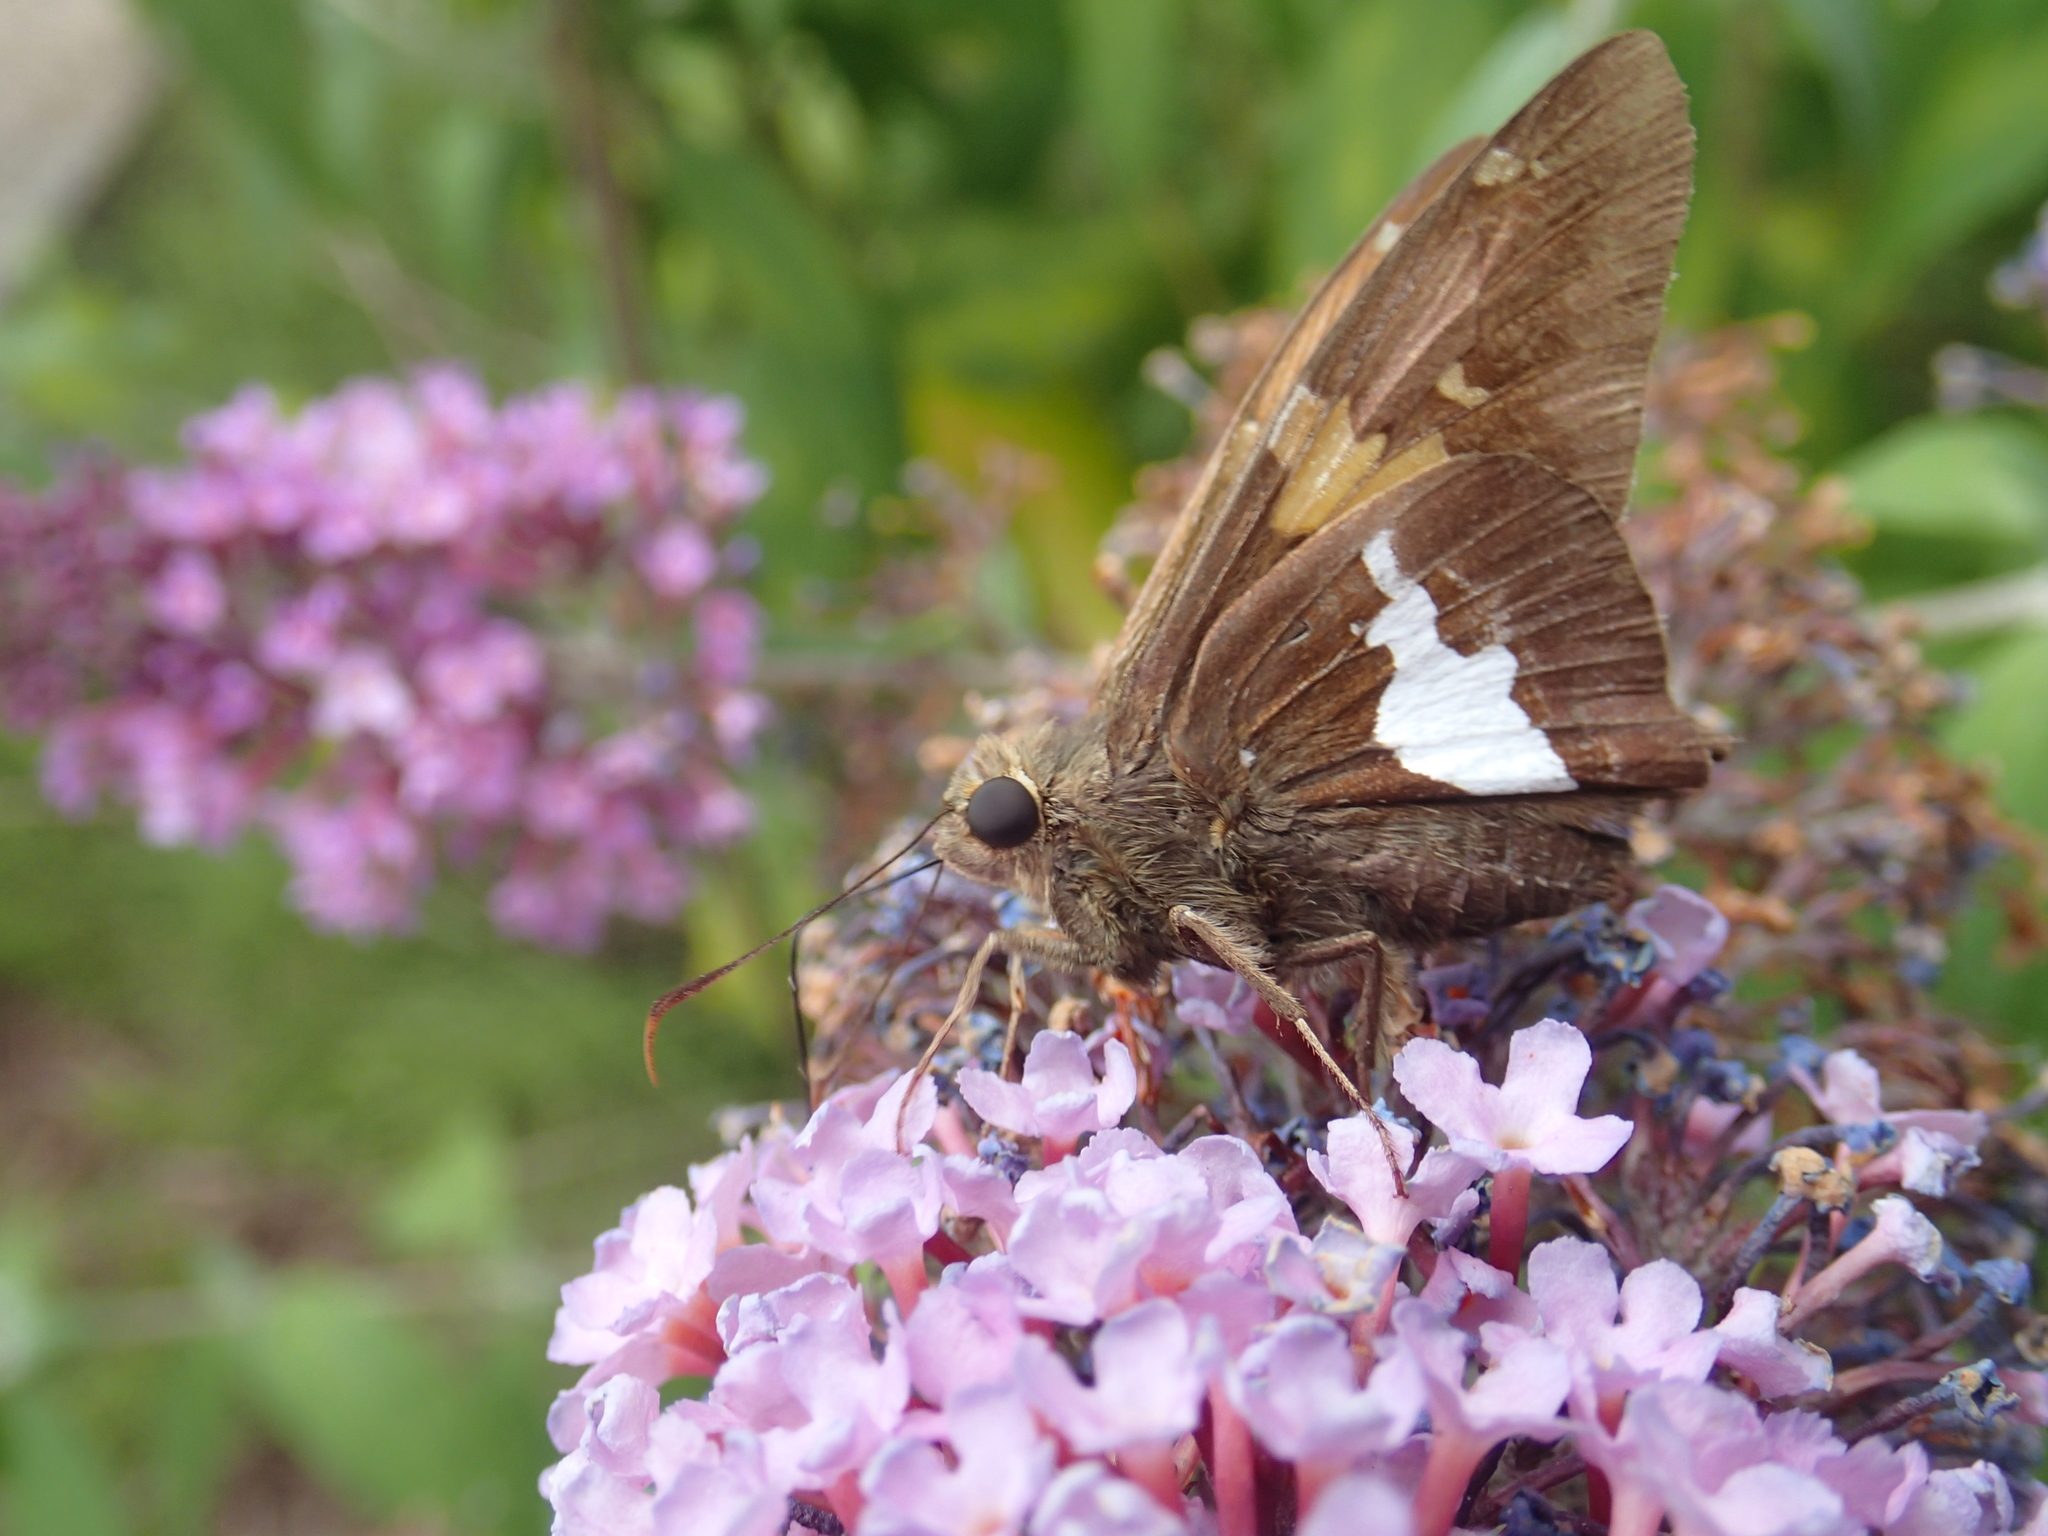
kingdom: Animalia
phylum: Arthropoda
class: Insecta
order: Lepidoptera
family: Hesperiidae
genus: Epargyreus
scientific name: Epargyreus clarus
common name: Silver-spotted skipper
